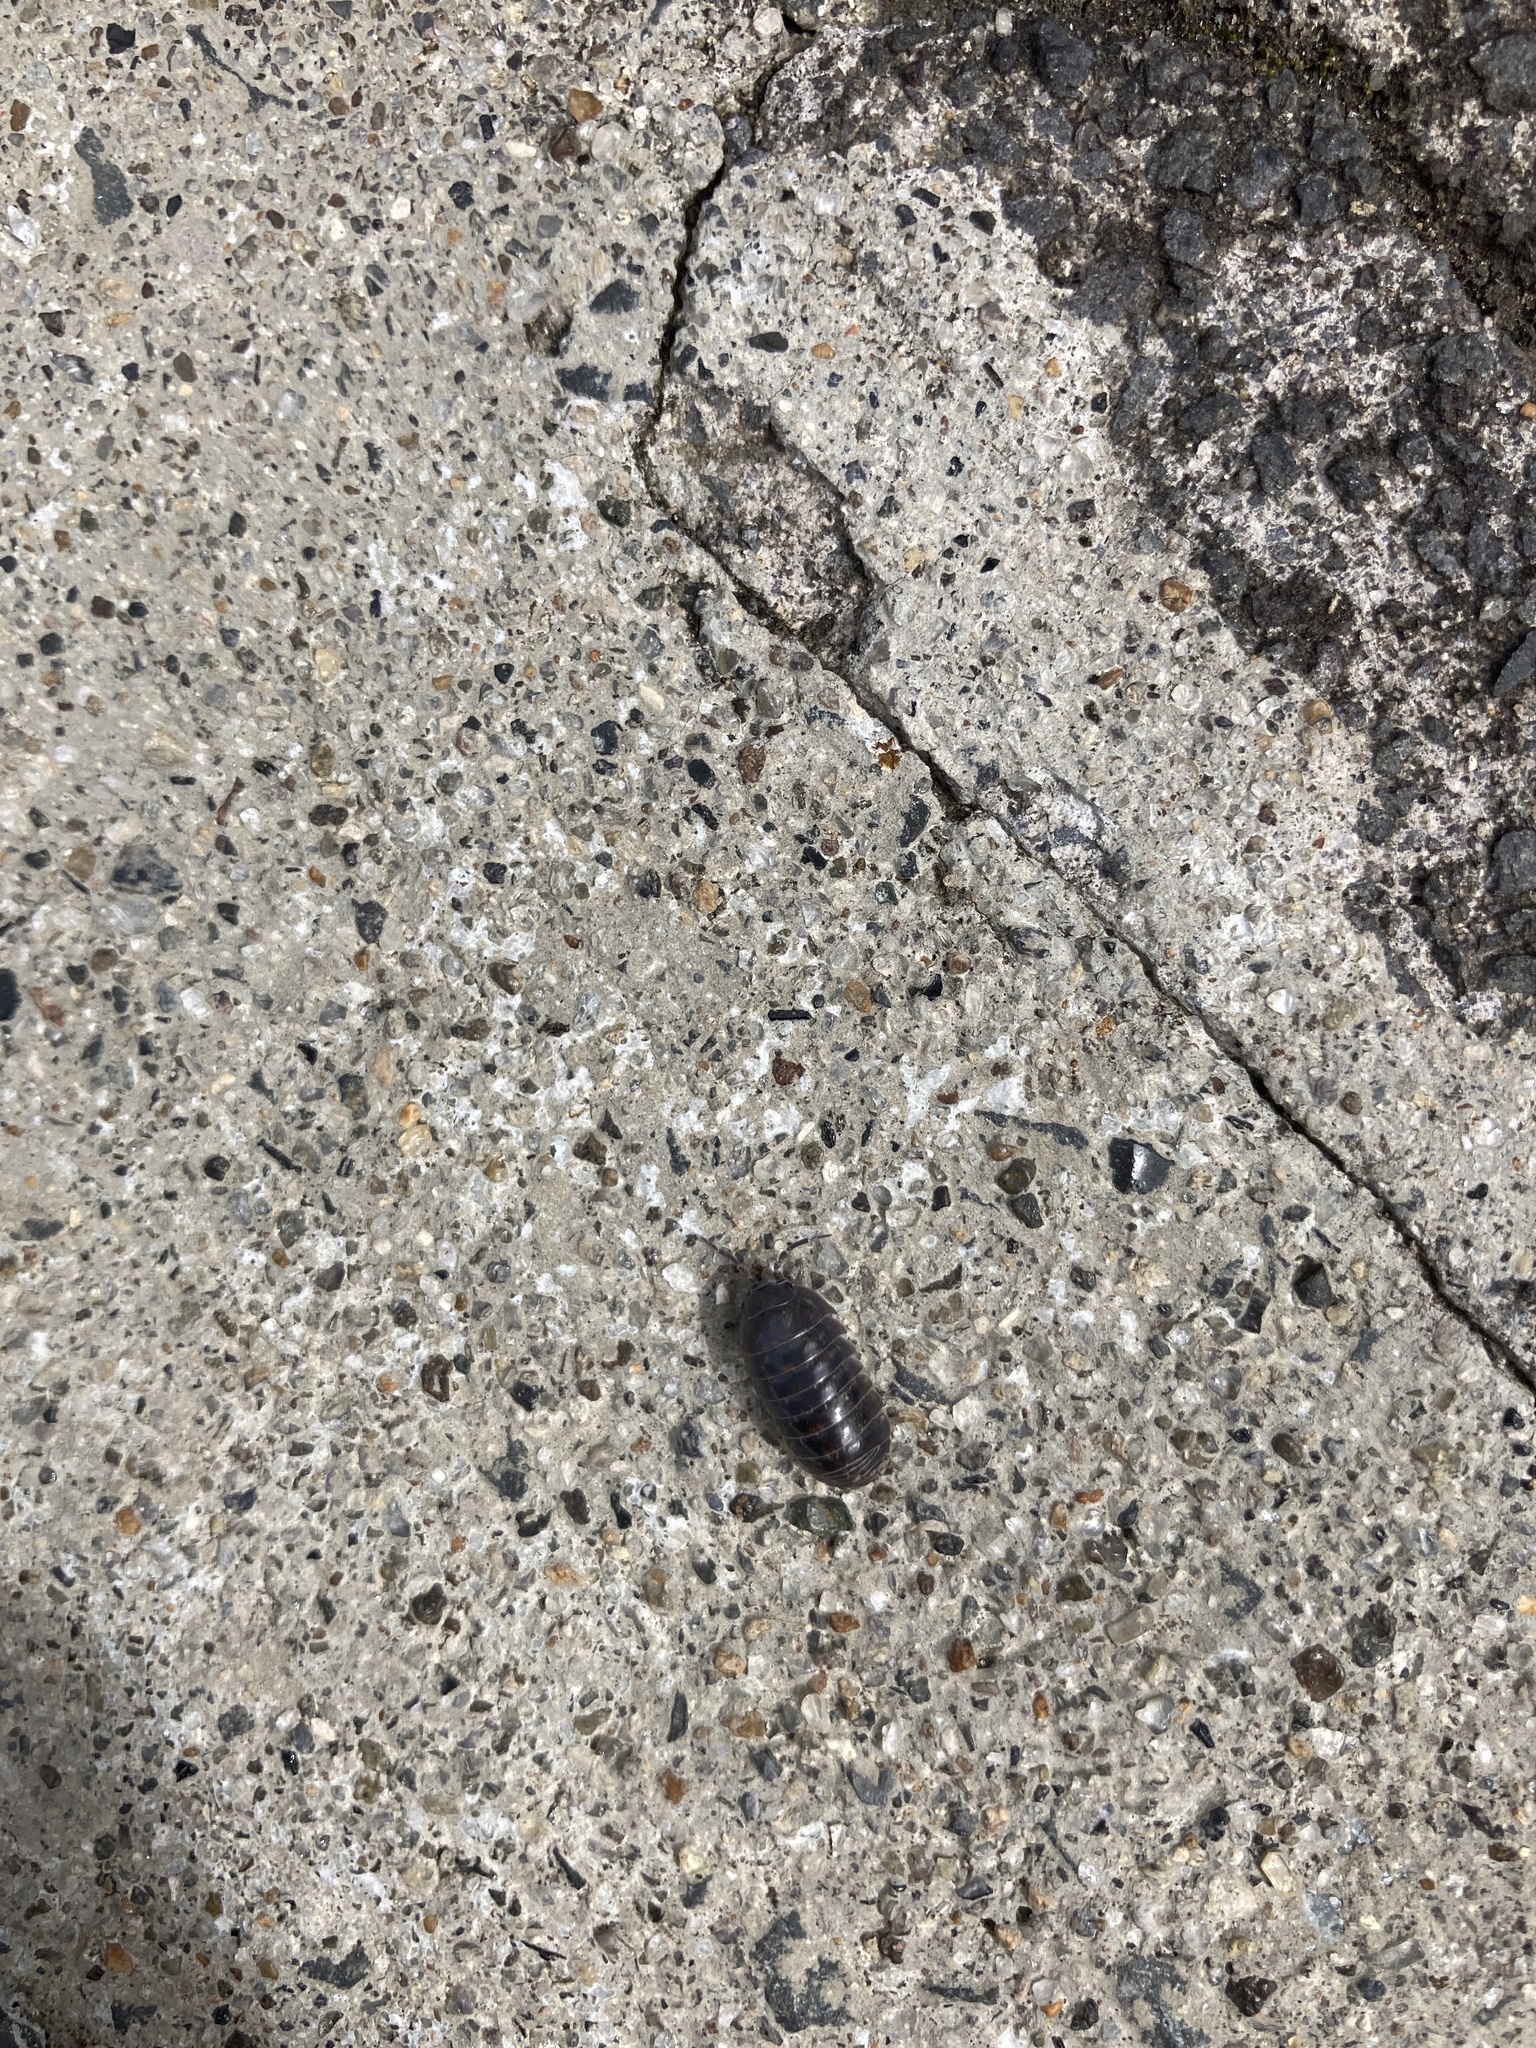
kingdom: Animalia
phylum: Arthropoda
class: Malacostraca
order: Isopoda
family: Armadillidiidae
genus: Armadillidium
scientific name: Armadillidium vulgare
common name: Common pill woodlouse
